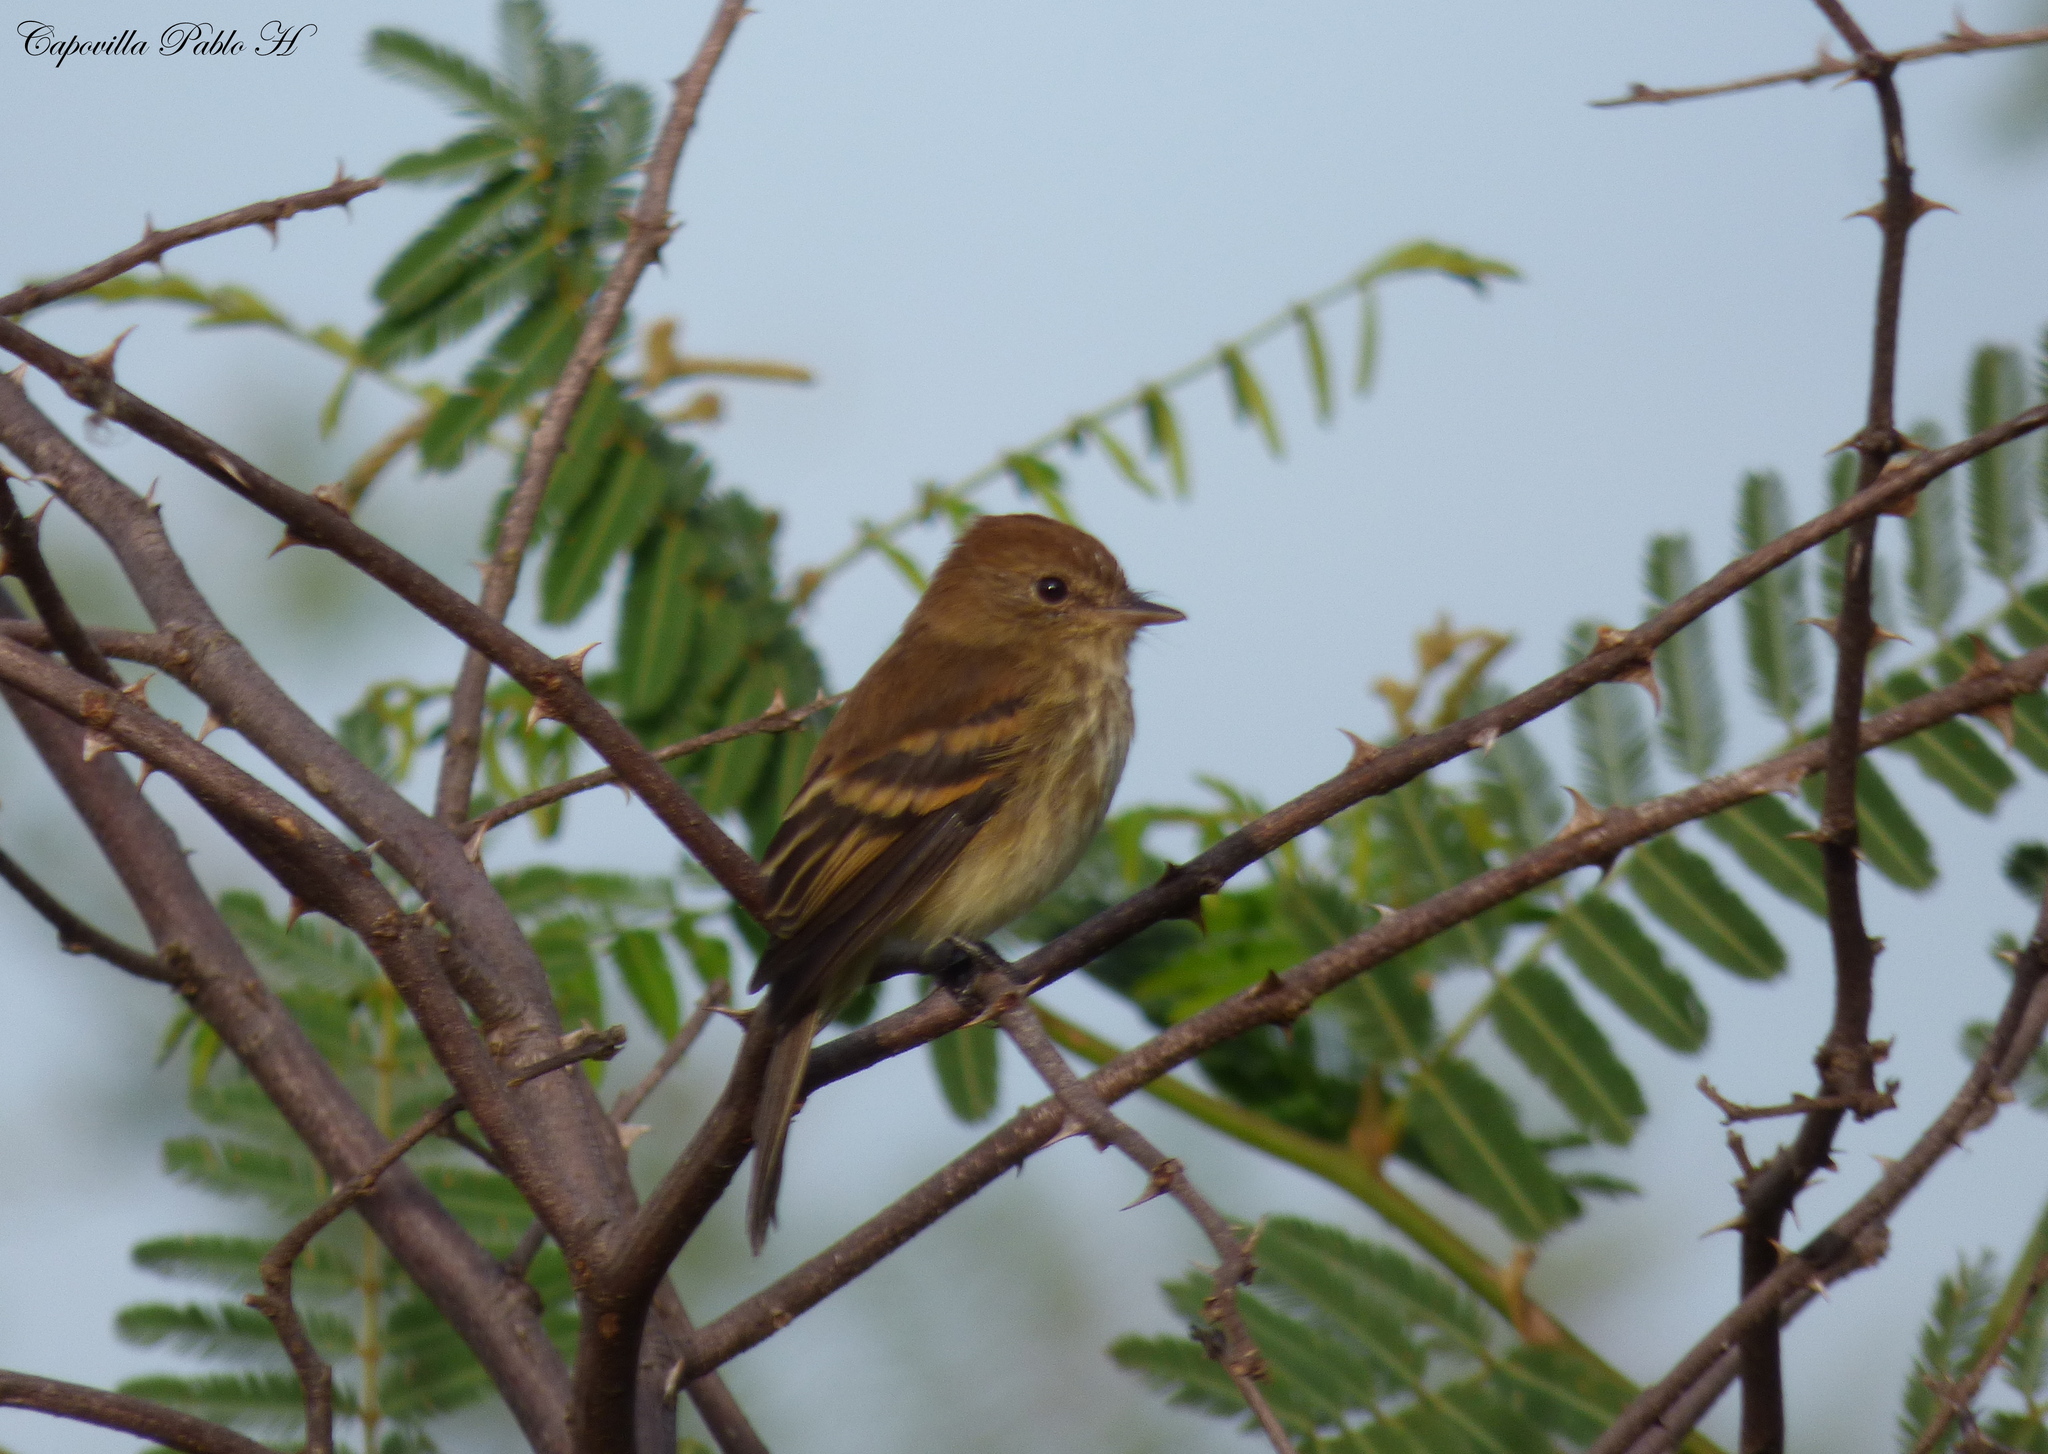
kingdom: Animalia
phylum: Chordata
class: Aves
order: Passeriformes
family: Tyrannidae
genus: Myiophobus
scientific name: Myiophobus fasciatus
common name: Bran-colored flycatcher
